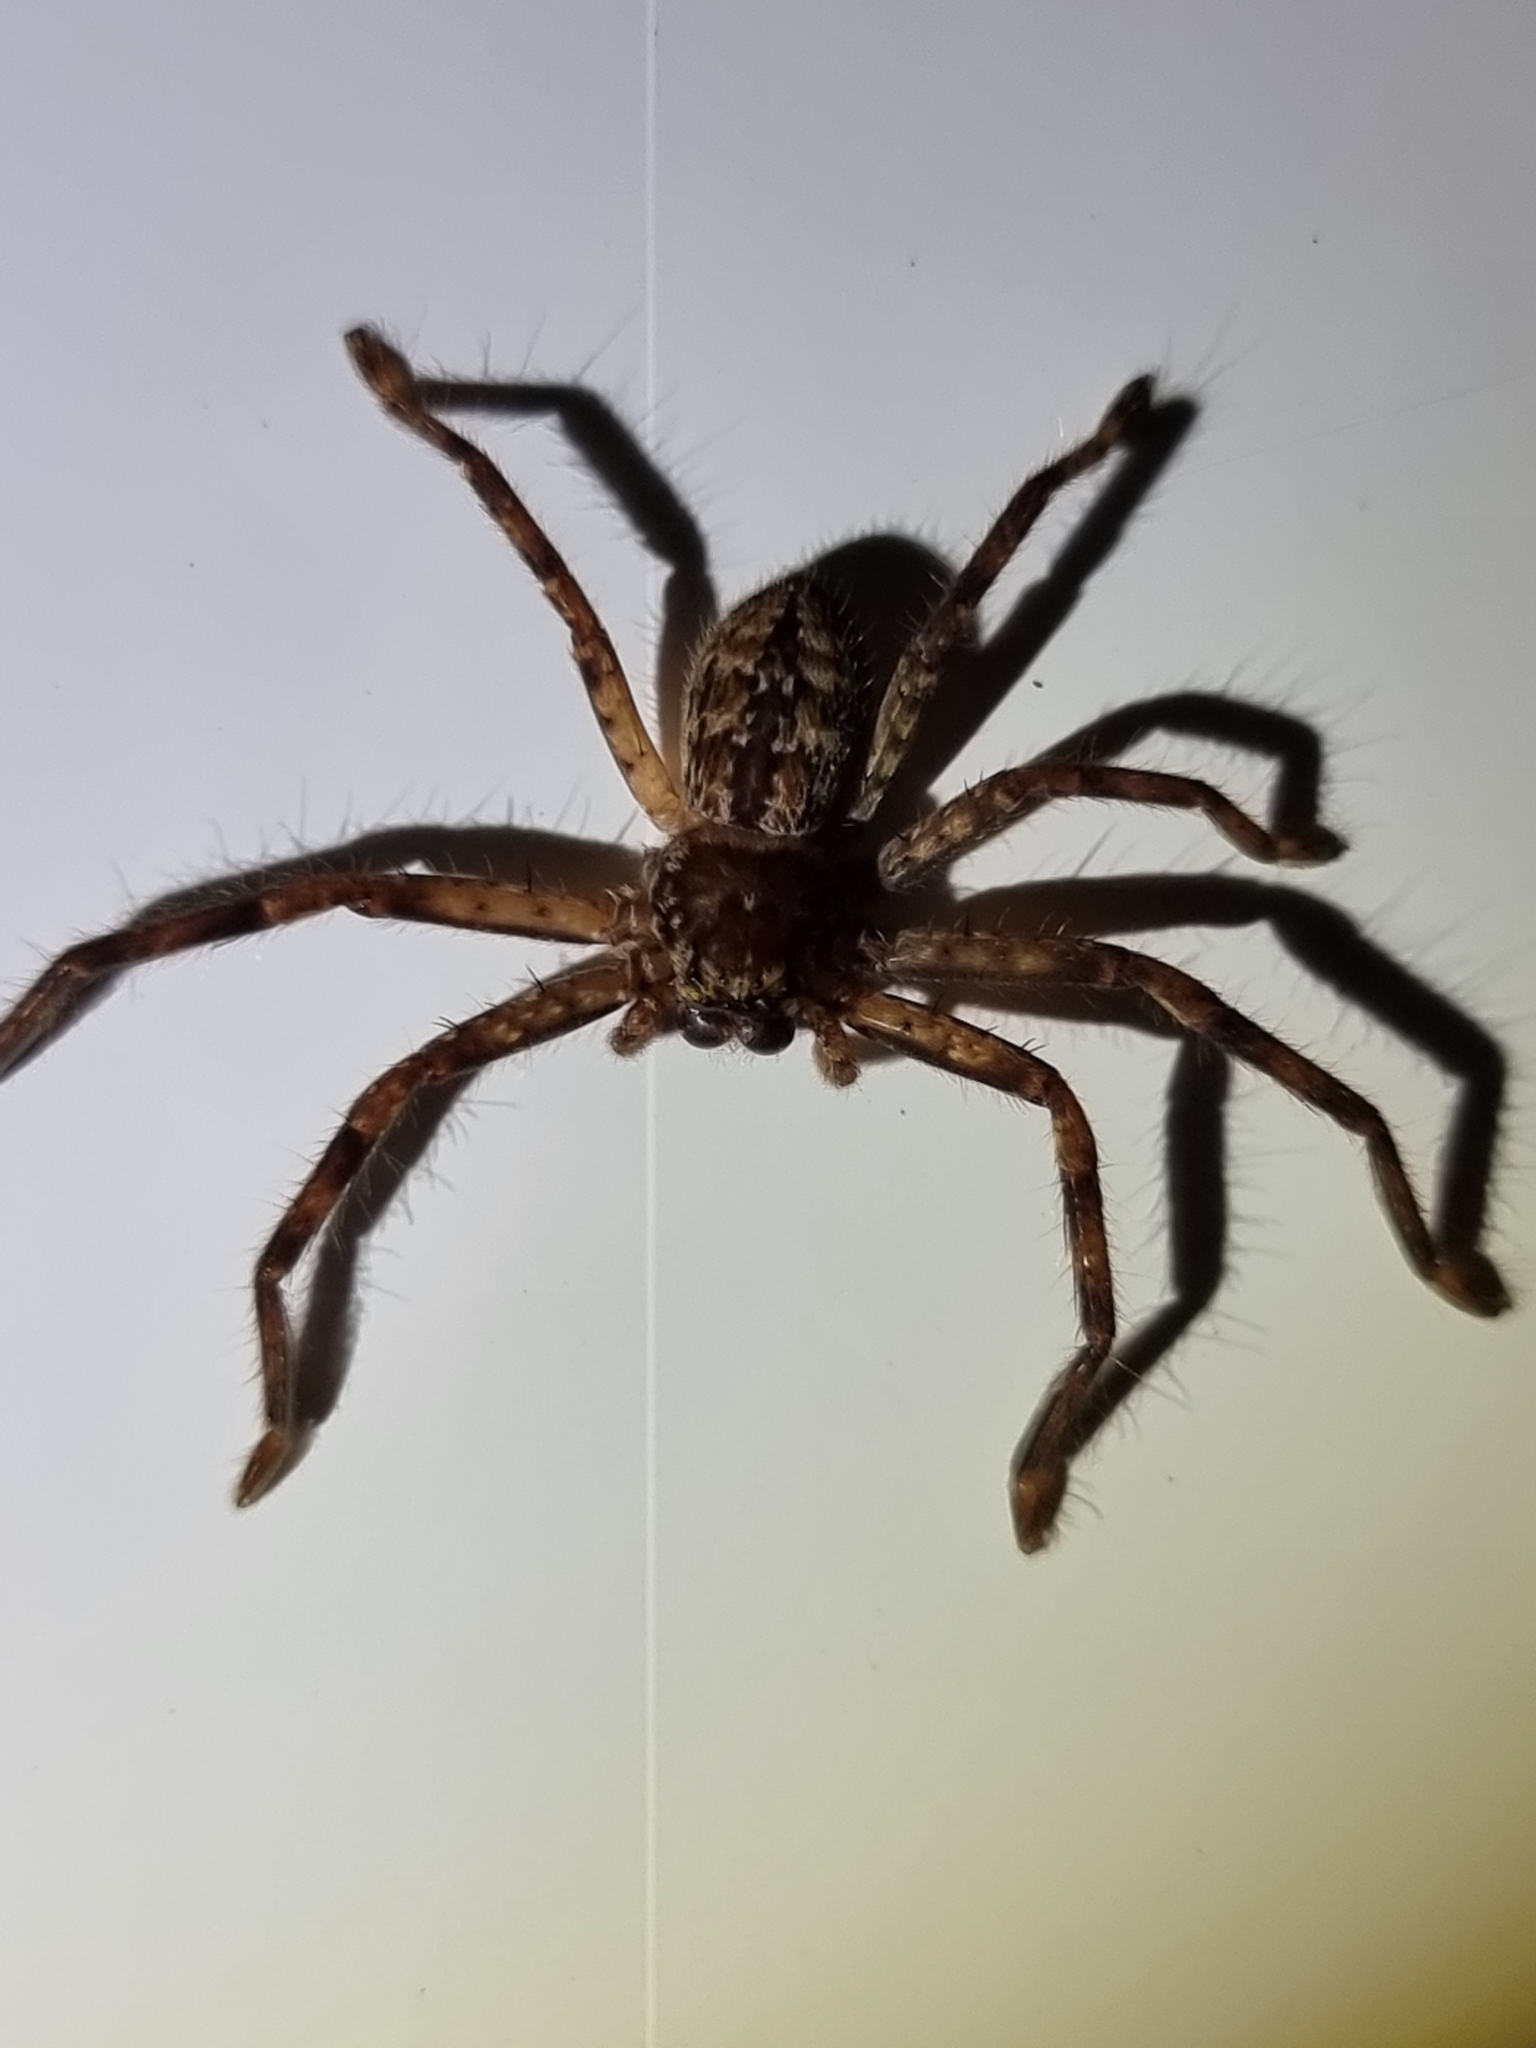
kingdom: Animalia
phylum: Arthropoda
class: Arachnida
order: Araneae
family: Sparassidae
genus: Isopeda
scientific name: Isopeda vasta
